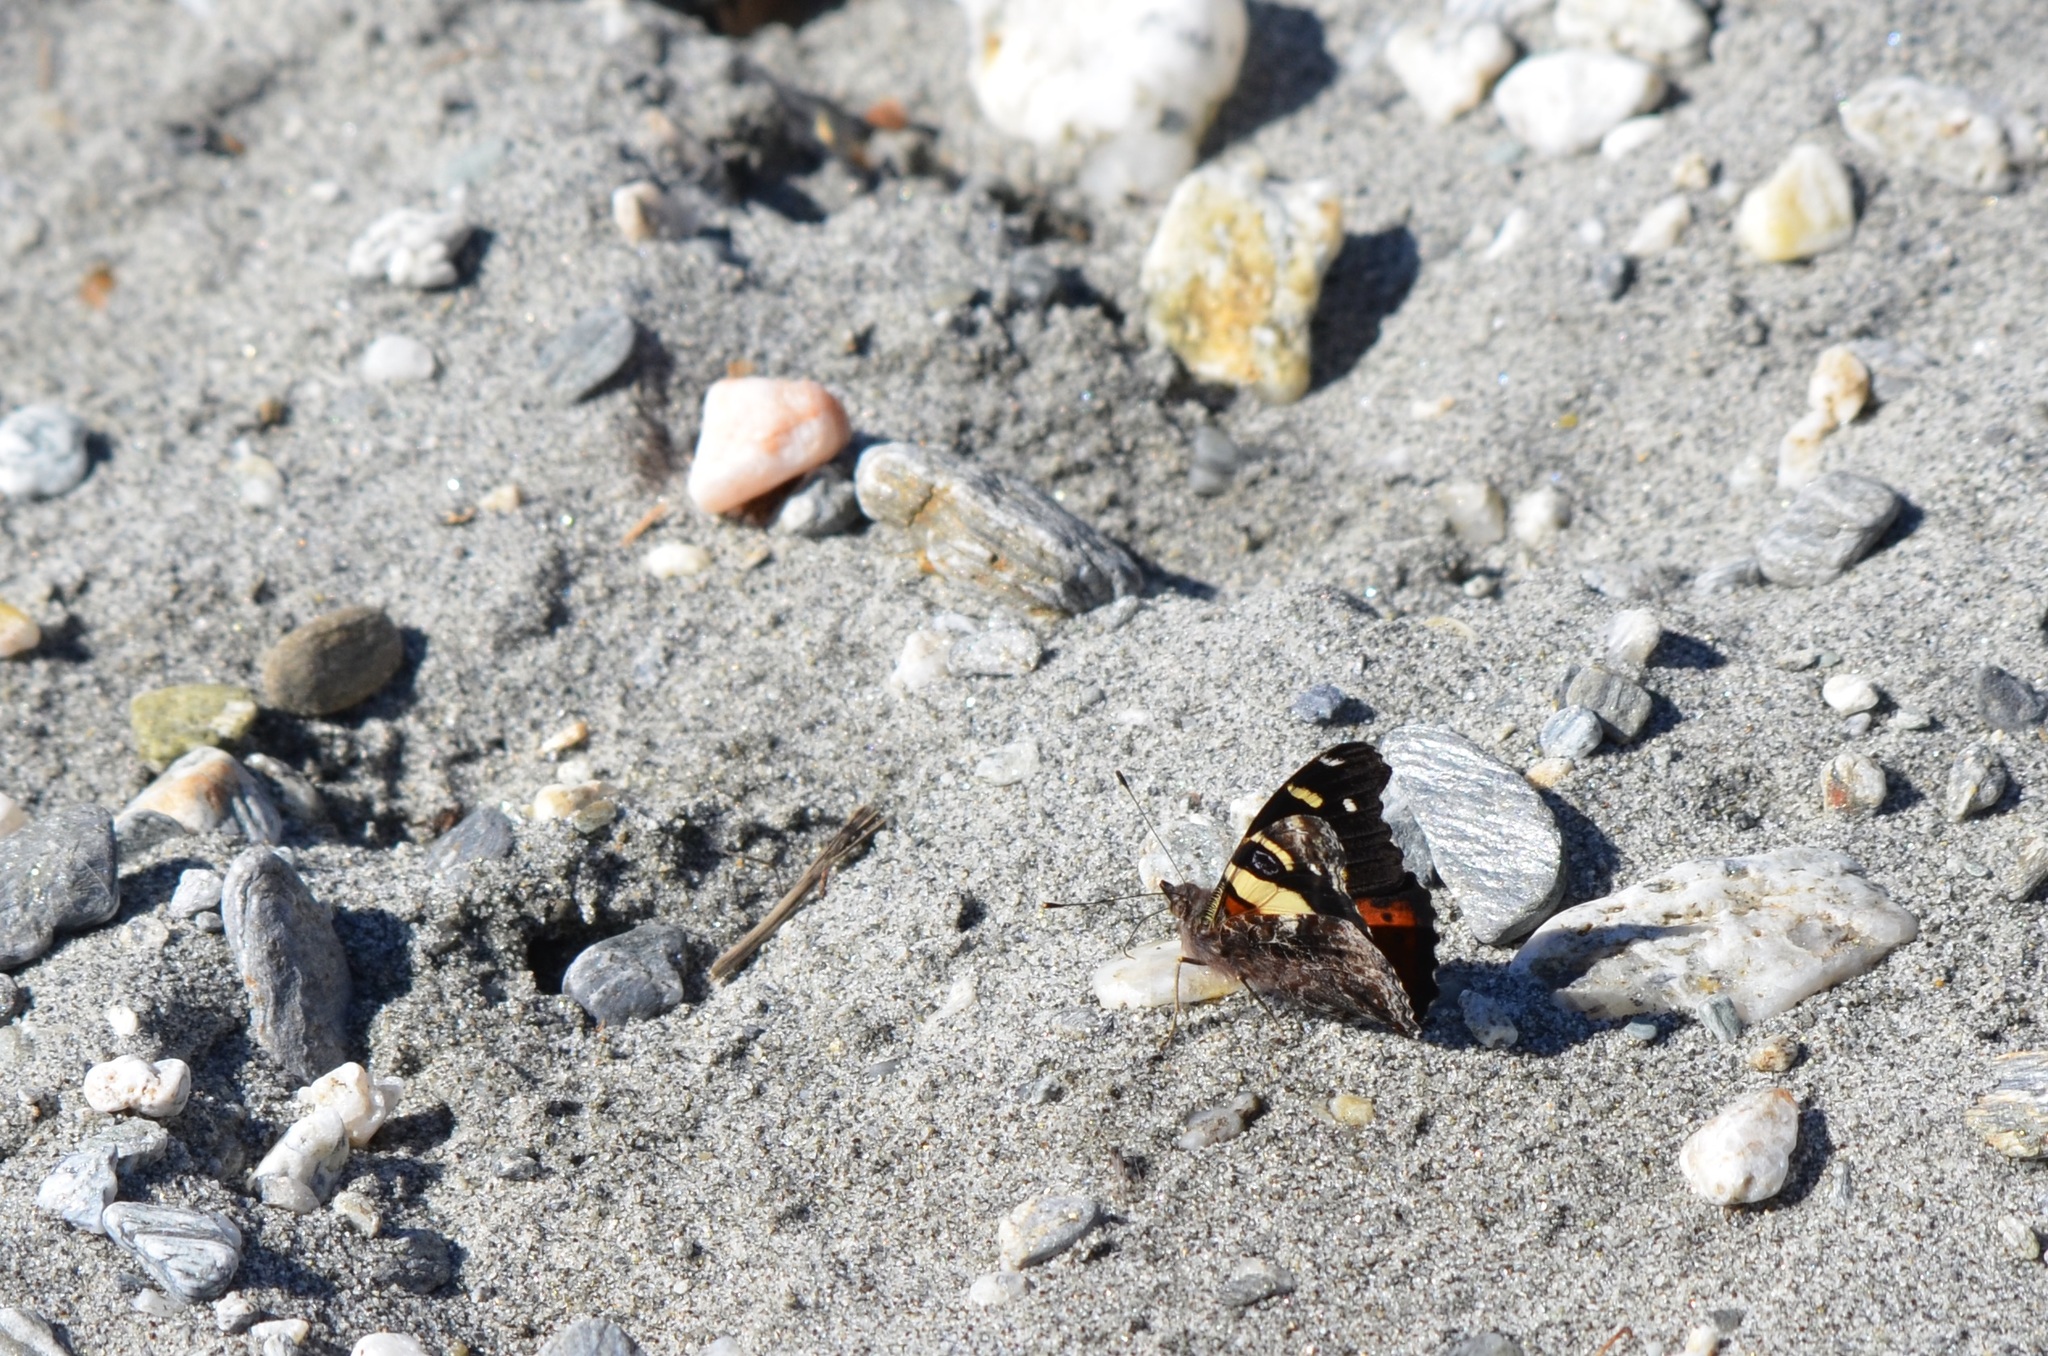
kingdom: Animalia
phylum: Arthropoda
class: Insecta
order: Lepidoptera
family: Nymphalidae
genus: Vanessa
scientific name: Vanessa itea
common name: Yellow admiral
